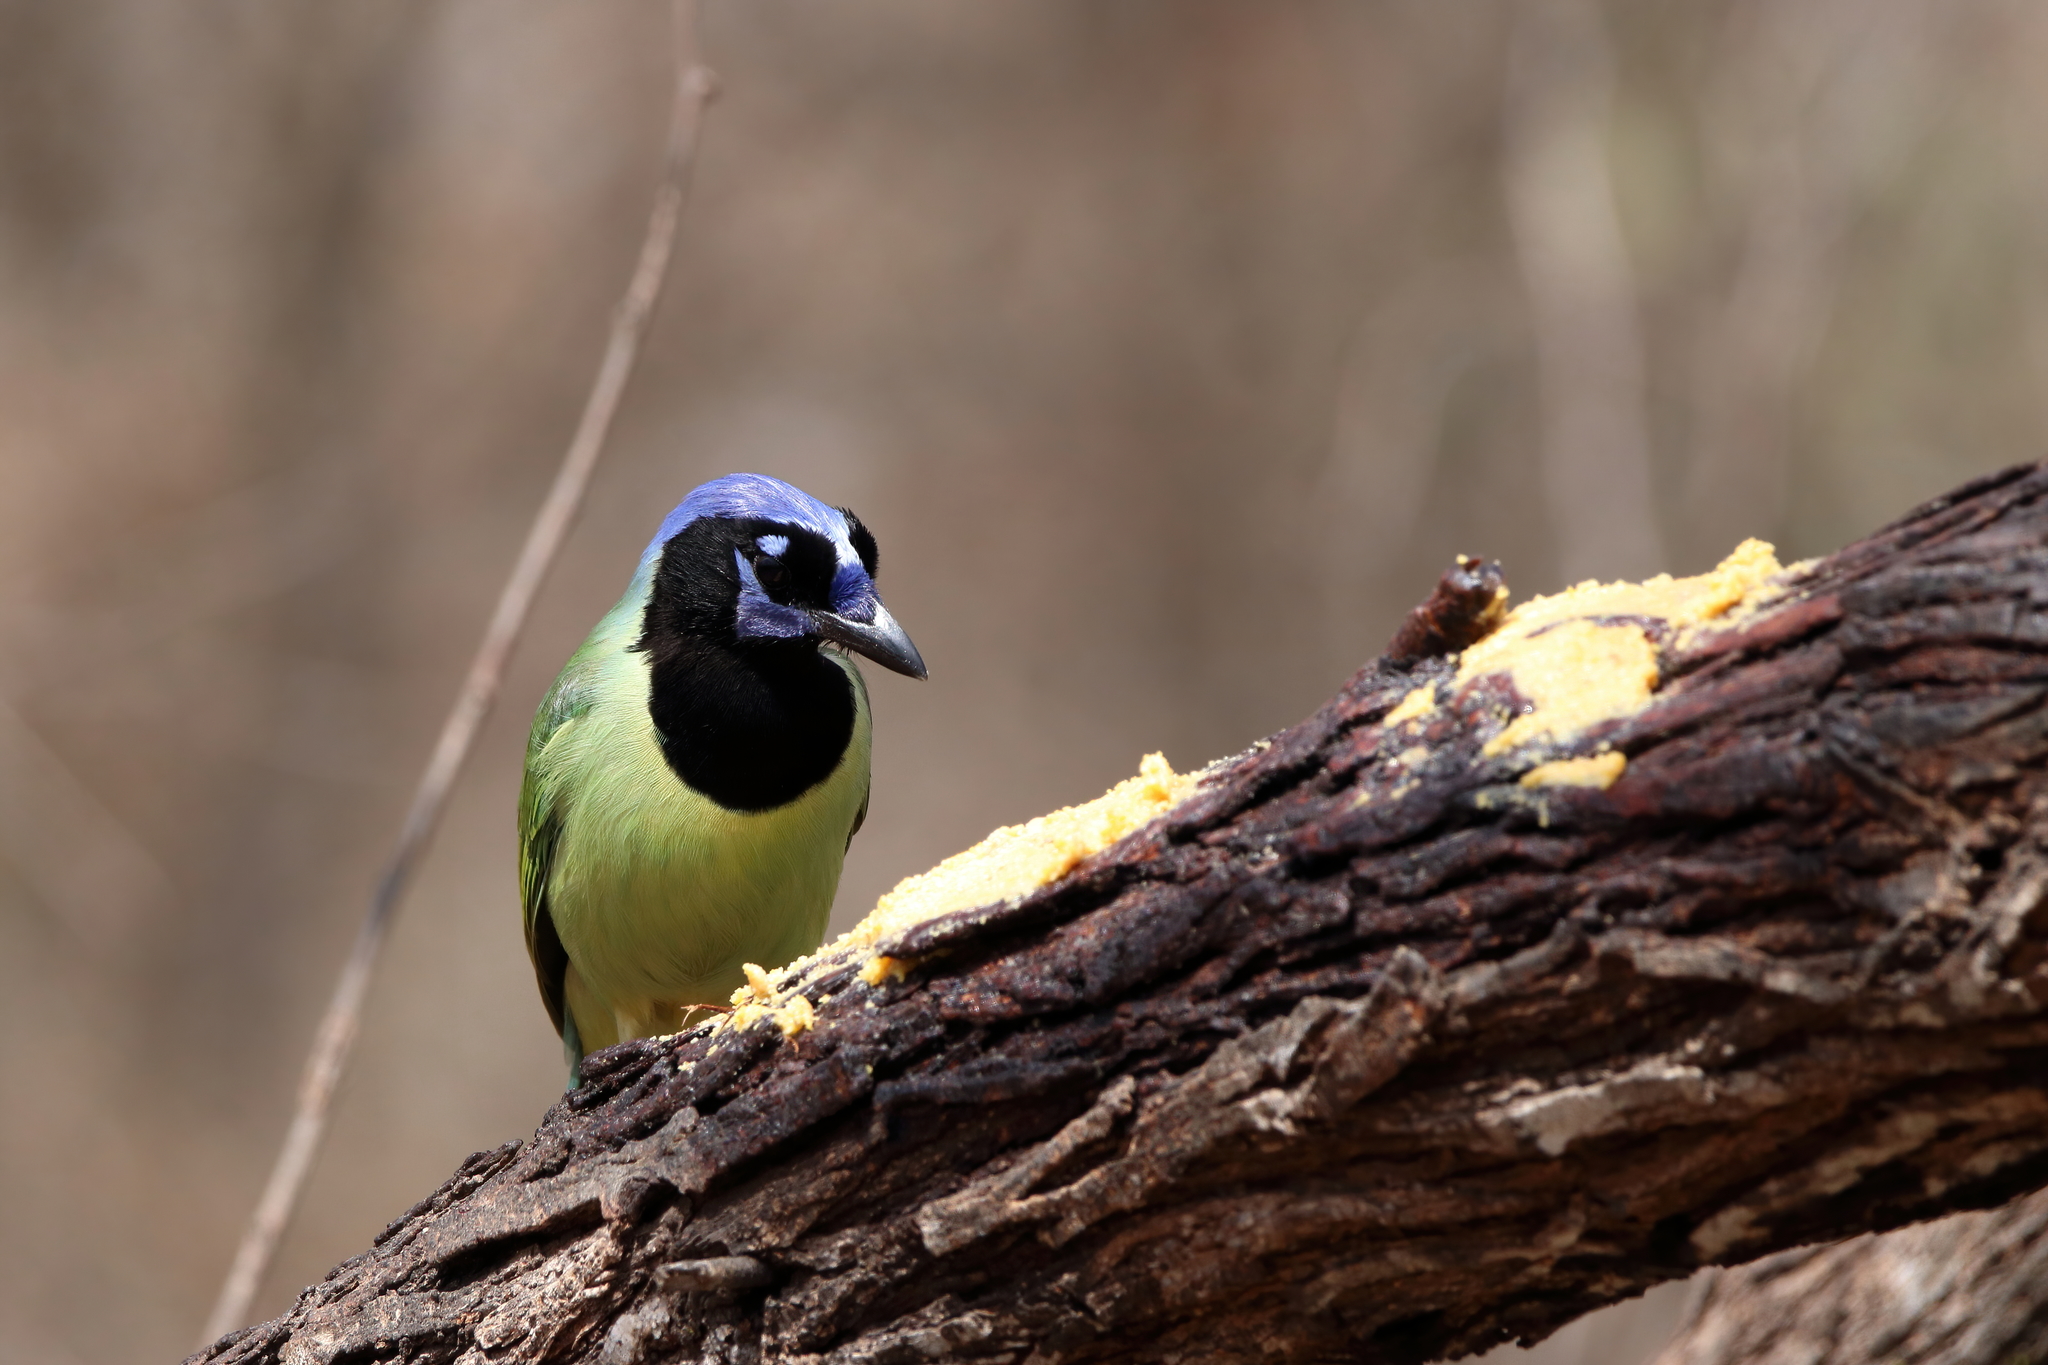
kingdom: Animalia
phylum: Chordata
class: Aves
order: Passeriformes
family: Corvidae
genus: Cyanocorax
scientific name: Cyanocorax yncas
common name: Green jay
